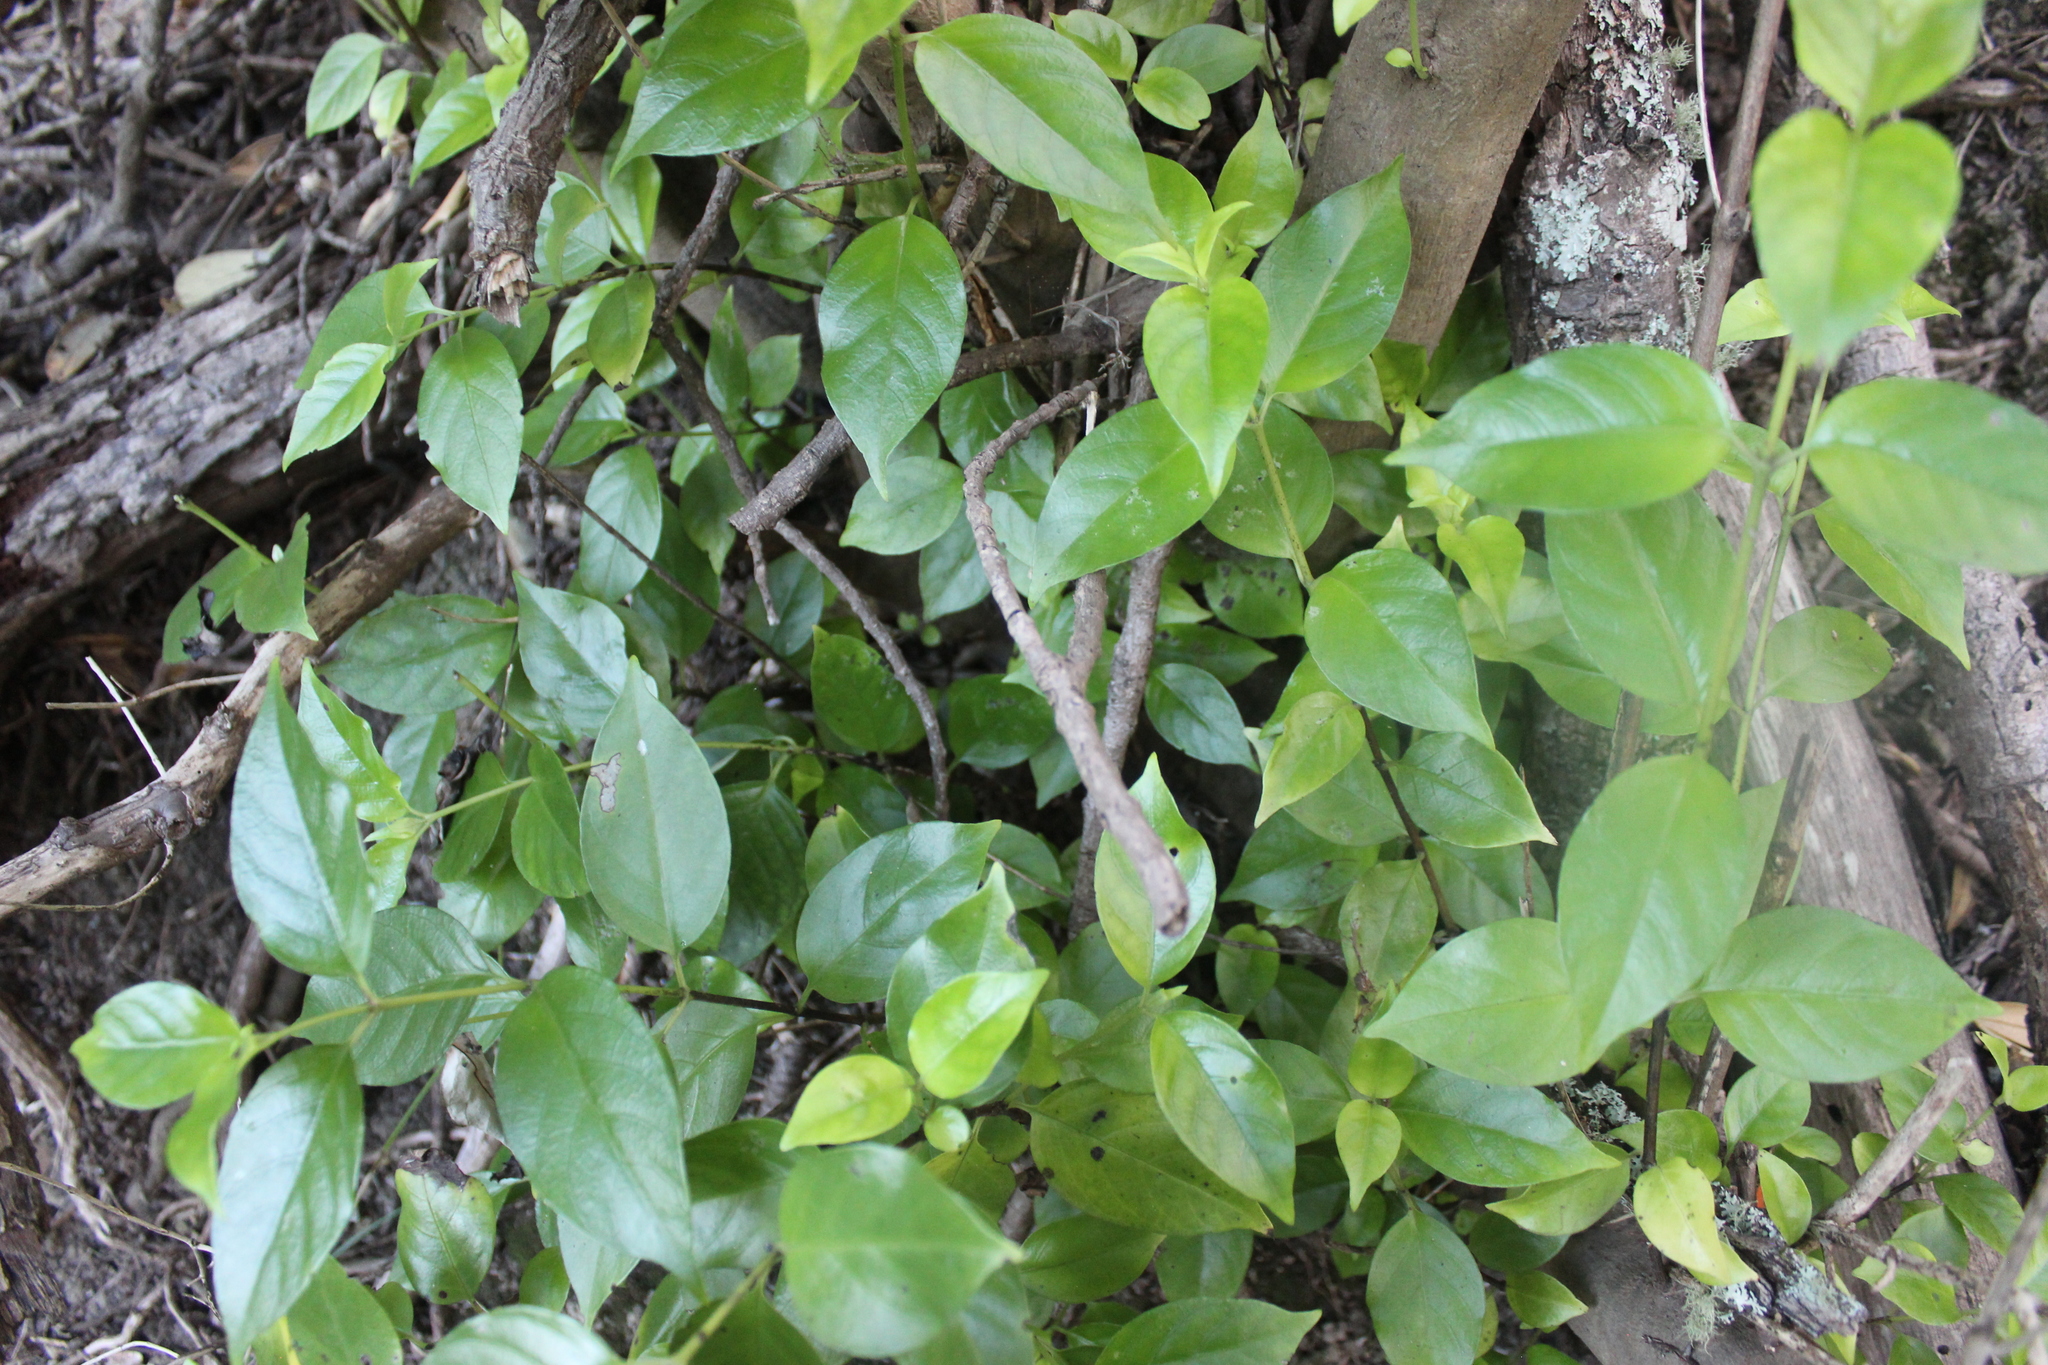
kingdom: Plantae
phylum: Tracheophyta
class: Magnoliopsida
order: Gentianales
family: Loganiaceae
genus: Geniostoma
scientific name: Geniostoma ligustrifolium
